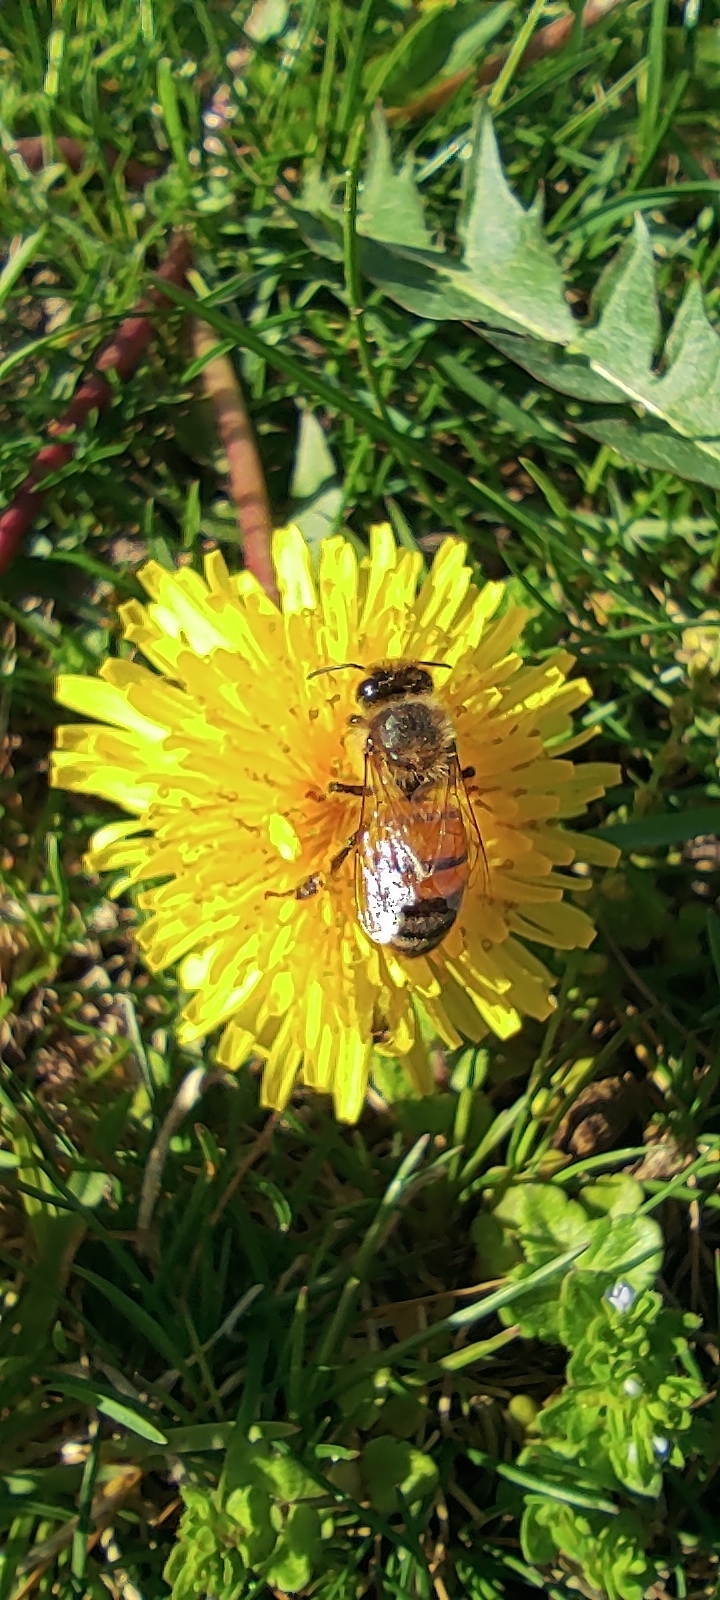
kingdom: Animalia
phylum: Arthropoda
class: Insecta
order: Hymenoptera
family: Apidae
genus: Apis
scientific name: Apis mellifera
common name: Honey bee
